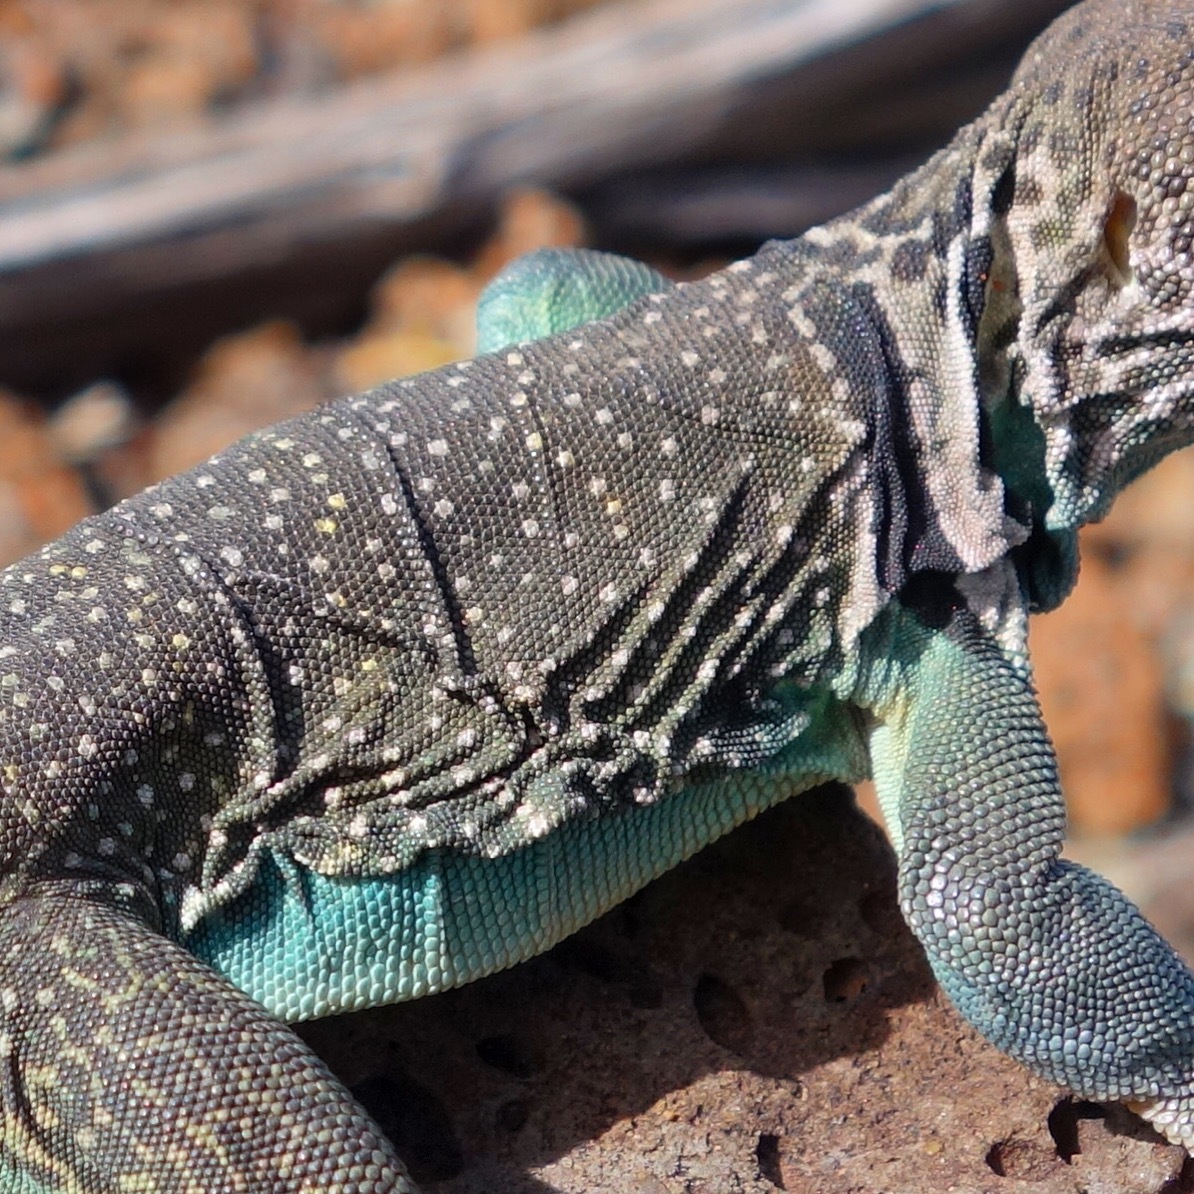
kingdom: Animalia
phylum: Chordata
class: Squamata
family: Crotaphytidae
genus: Crotaphytus
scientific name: Crotaphytus collaris
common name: Collared lizard
